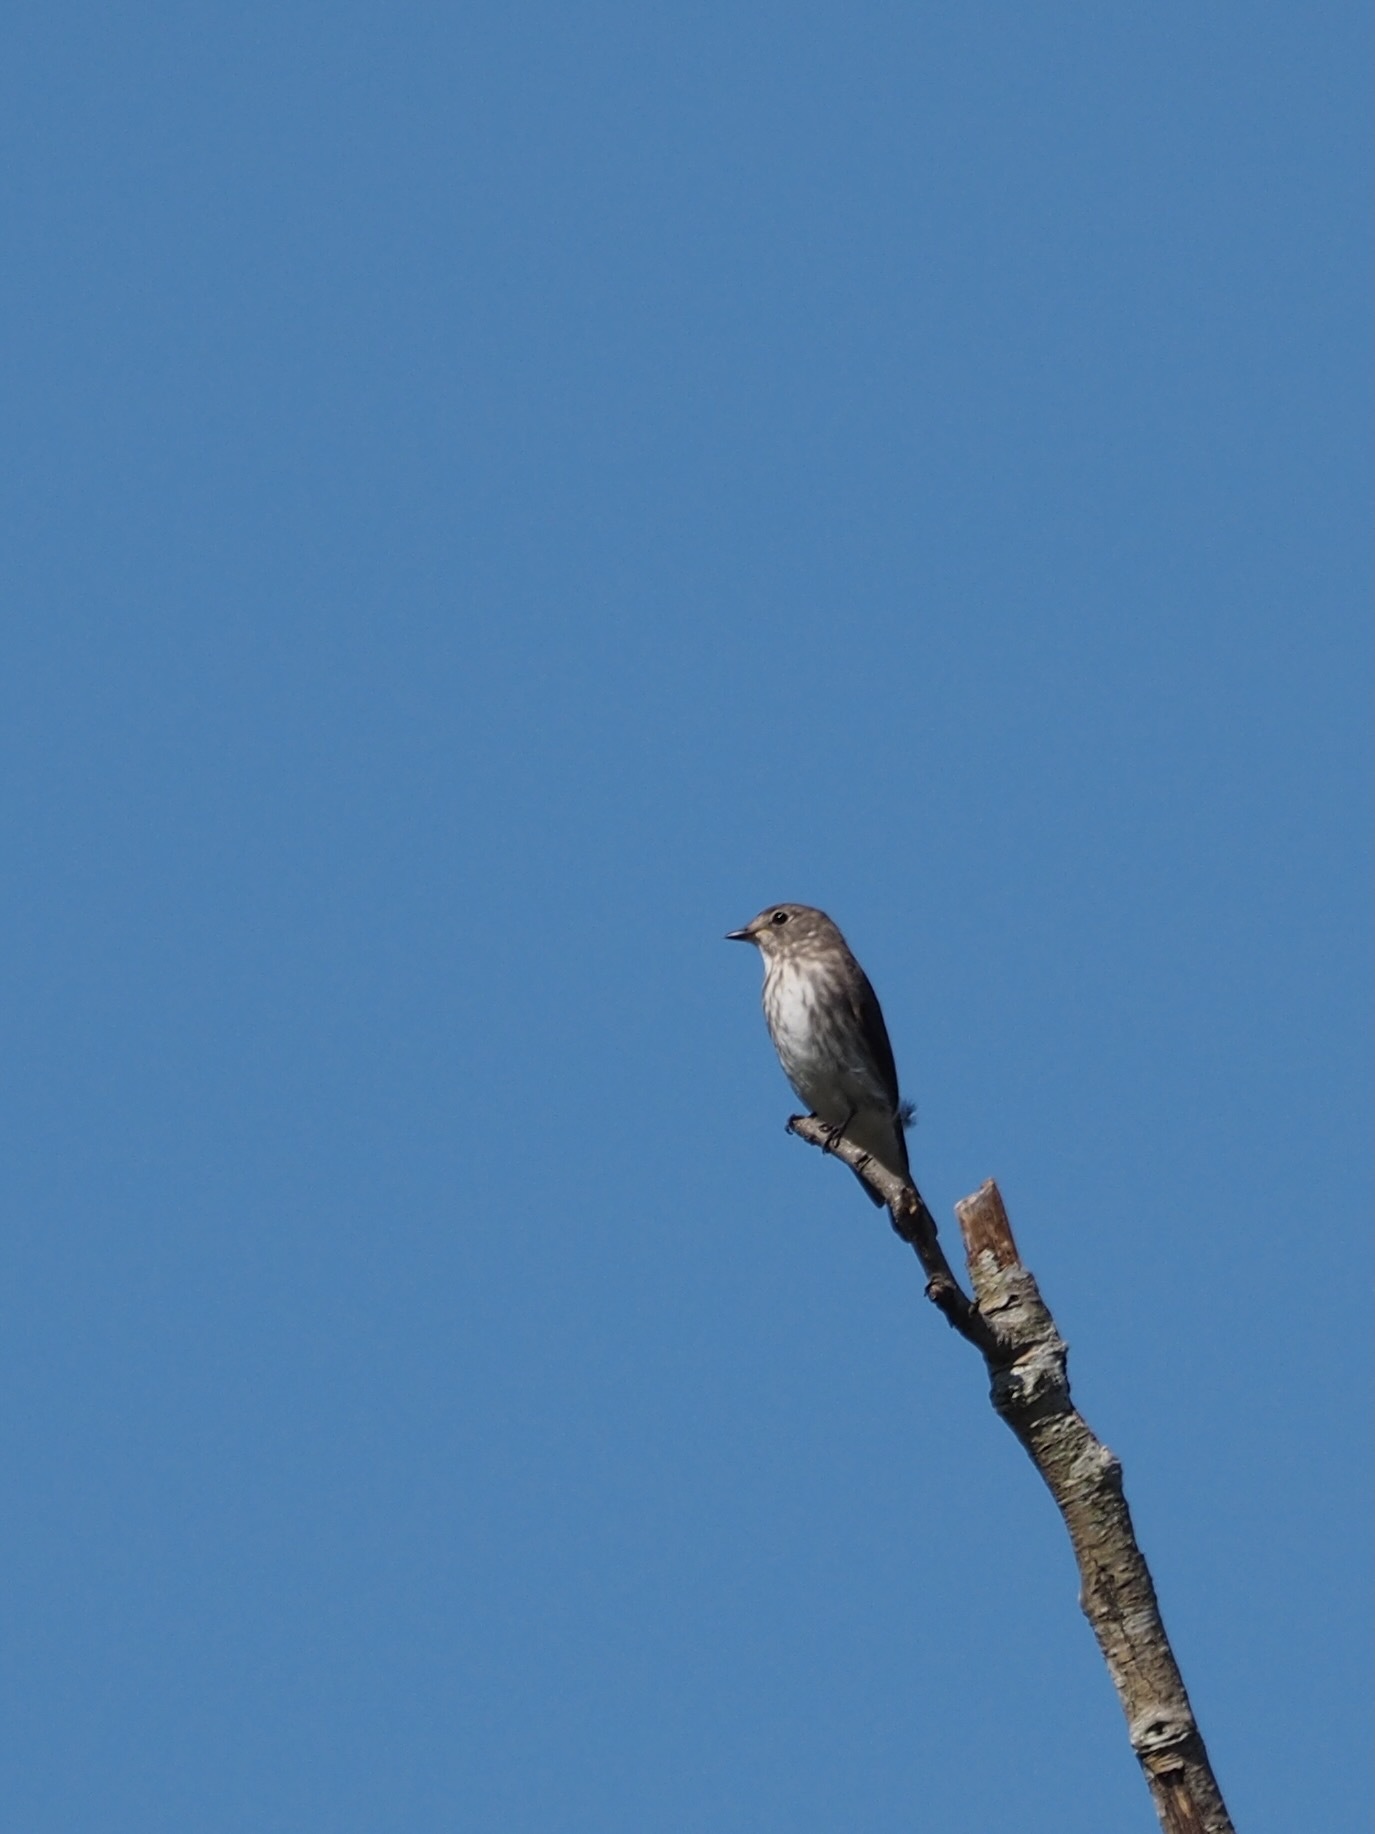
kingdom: Animalia
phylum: Chordata
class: Aves
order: Passeriformes
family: Muscicapidae
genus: Muscicapa
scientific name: Muscicapa griseisticta
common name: Gray-streaked flycatcher
